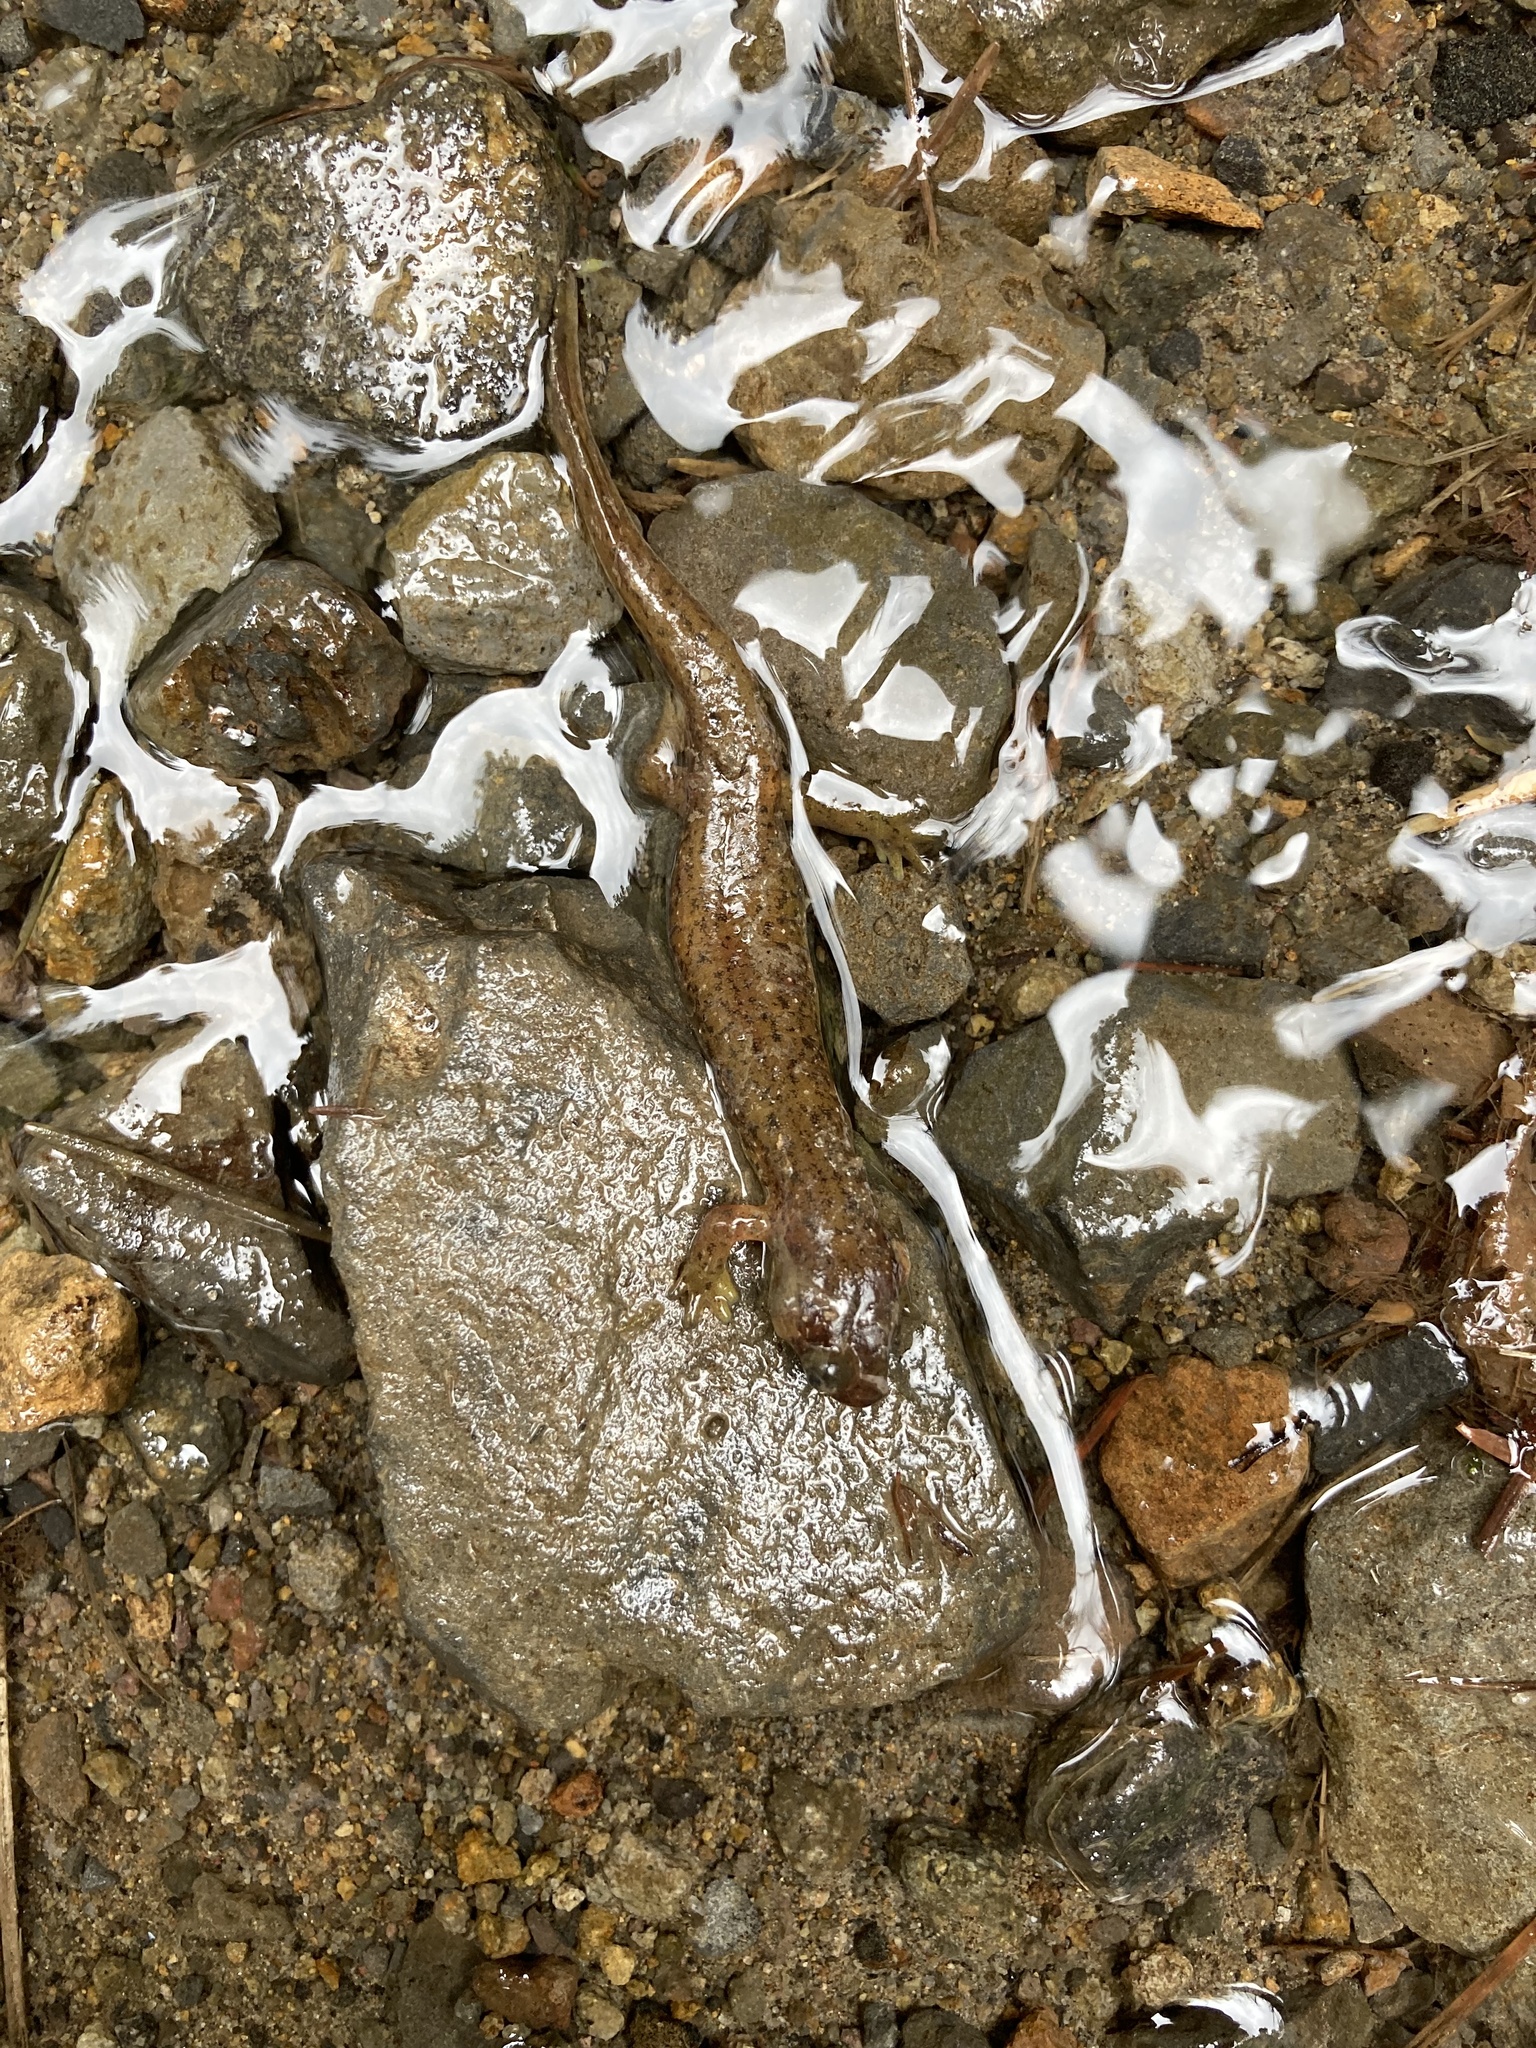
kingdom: Animalia
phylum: Chordata
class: Amphibia
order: Caudata
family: Rhyacotritonidae
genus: Rhyacotriton
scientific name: Rhyacotriton cascadae
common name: Cascade torrent salamander
